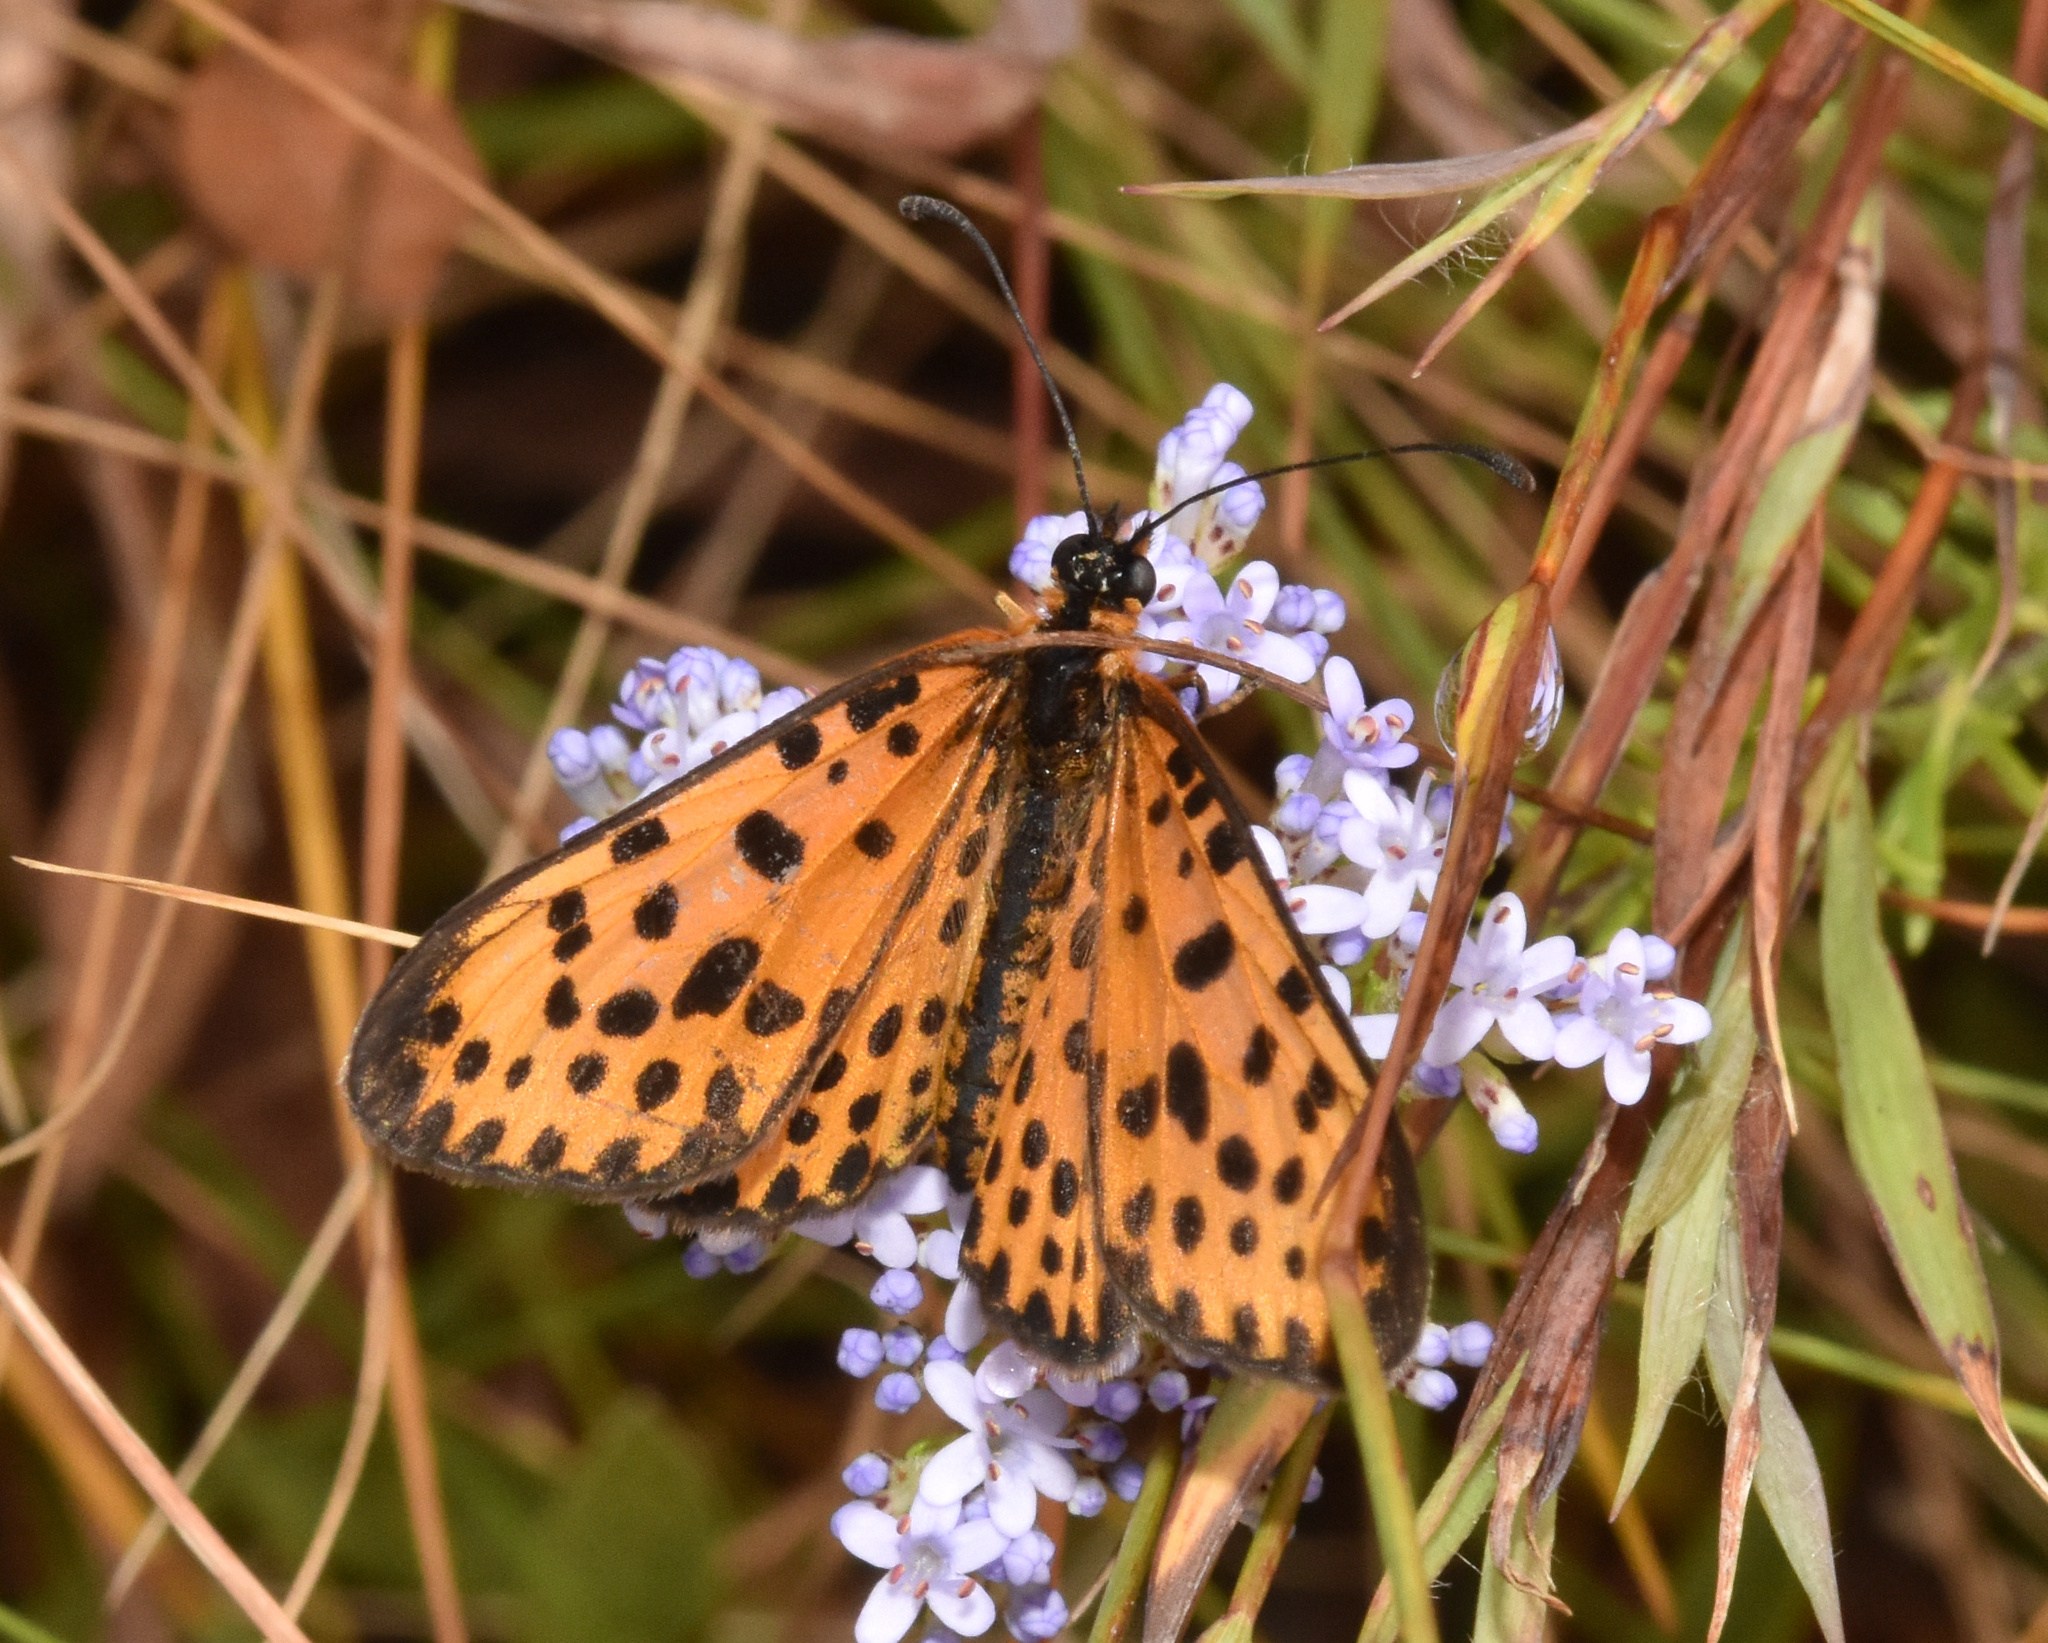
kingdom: Animalia
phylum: Arthropoda
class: Insecta
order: Lepidoptera
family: Nymphalidae
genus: Pardopsis
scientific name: Pardopsis punctatissima
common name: Polka dot
